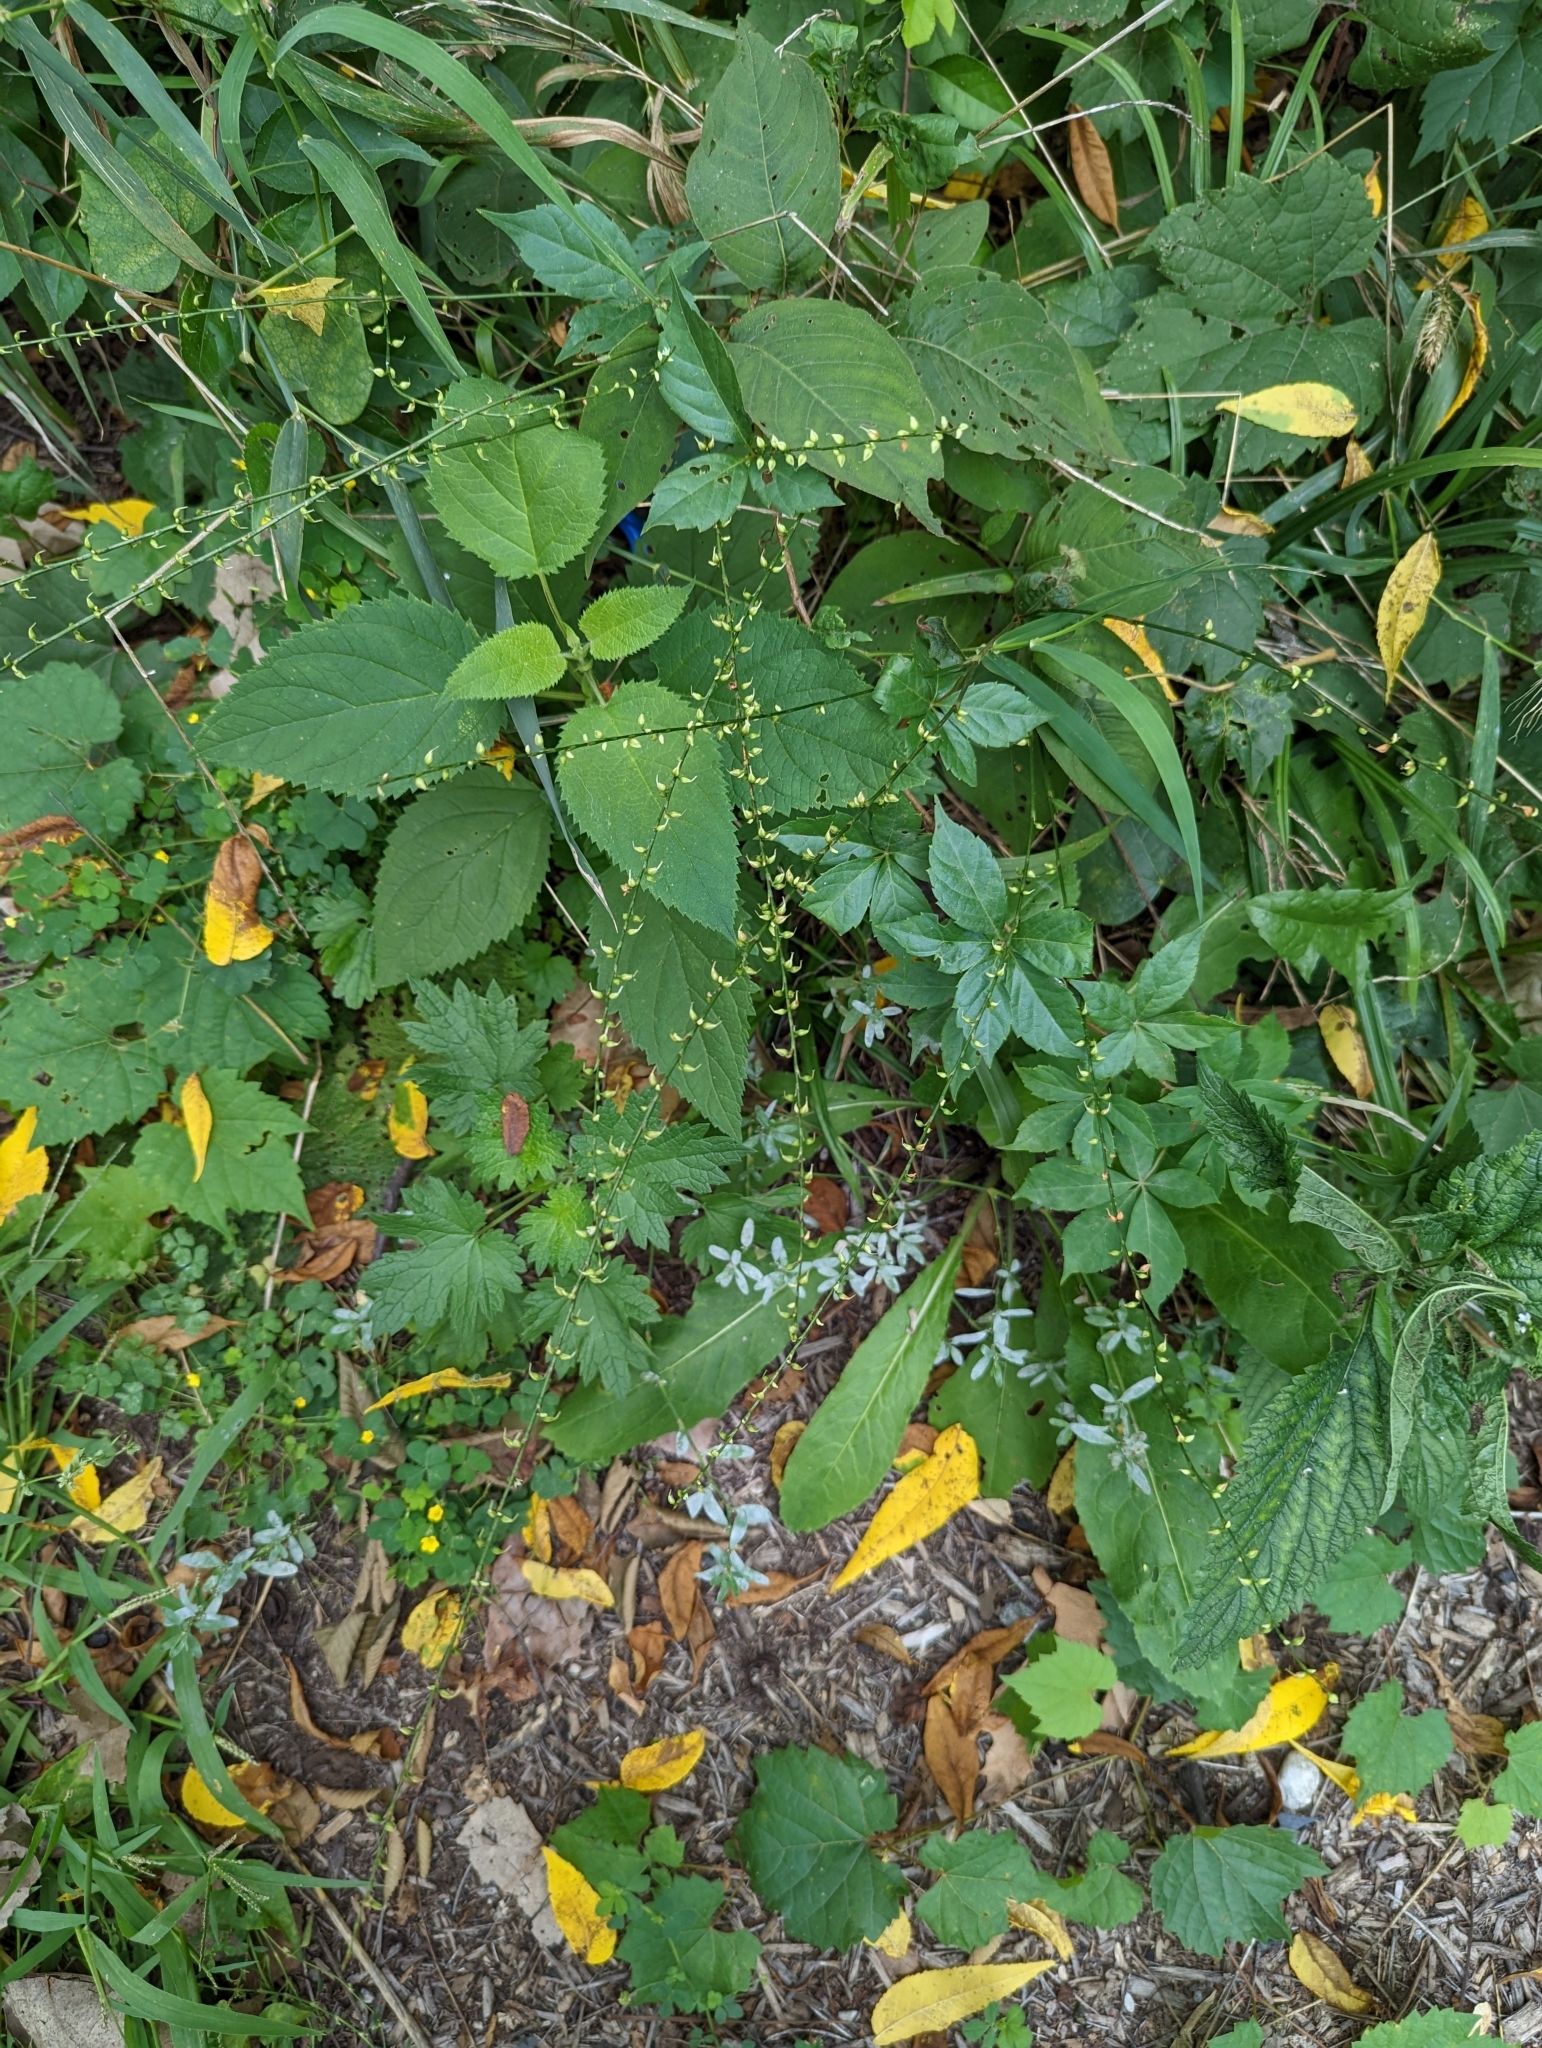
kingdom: Plantae
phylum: Tracheophyta
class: Magnoliopsida
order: Caryophyllales
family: Polygonaceae
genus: Persicaria
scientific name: Persicaria virginiana
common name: Jumpseed
